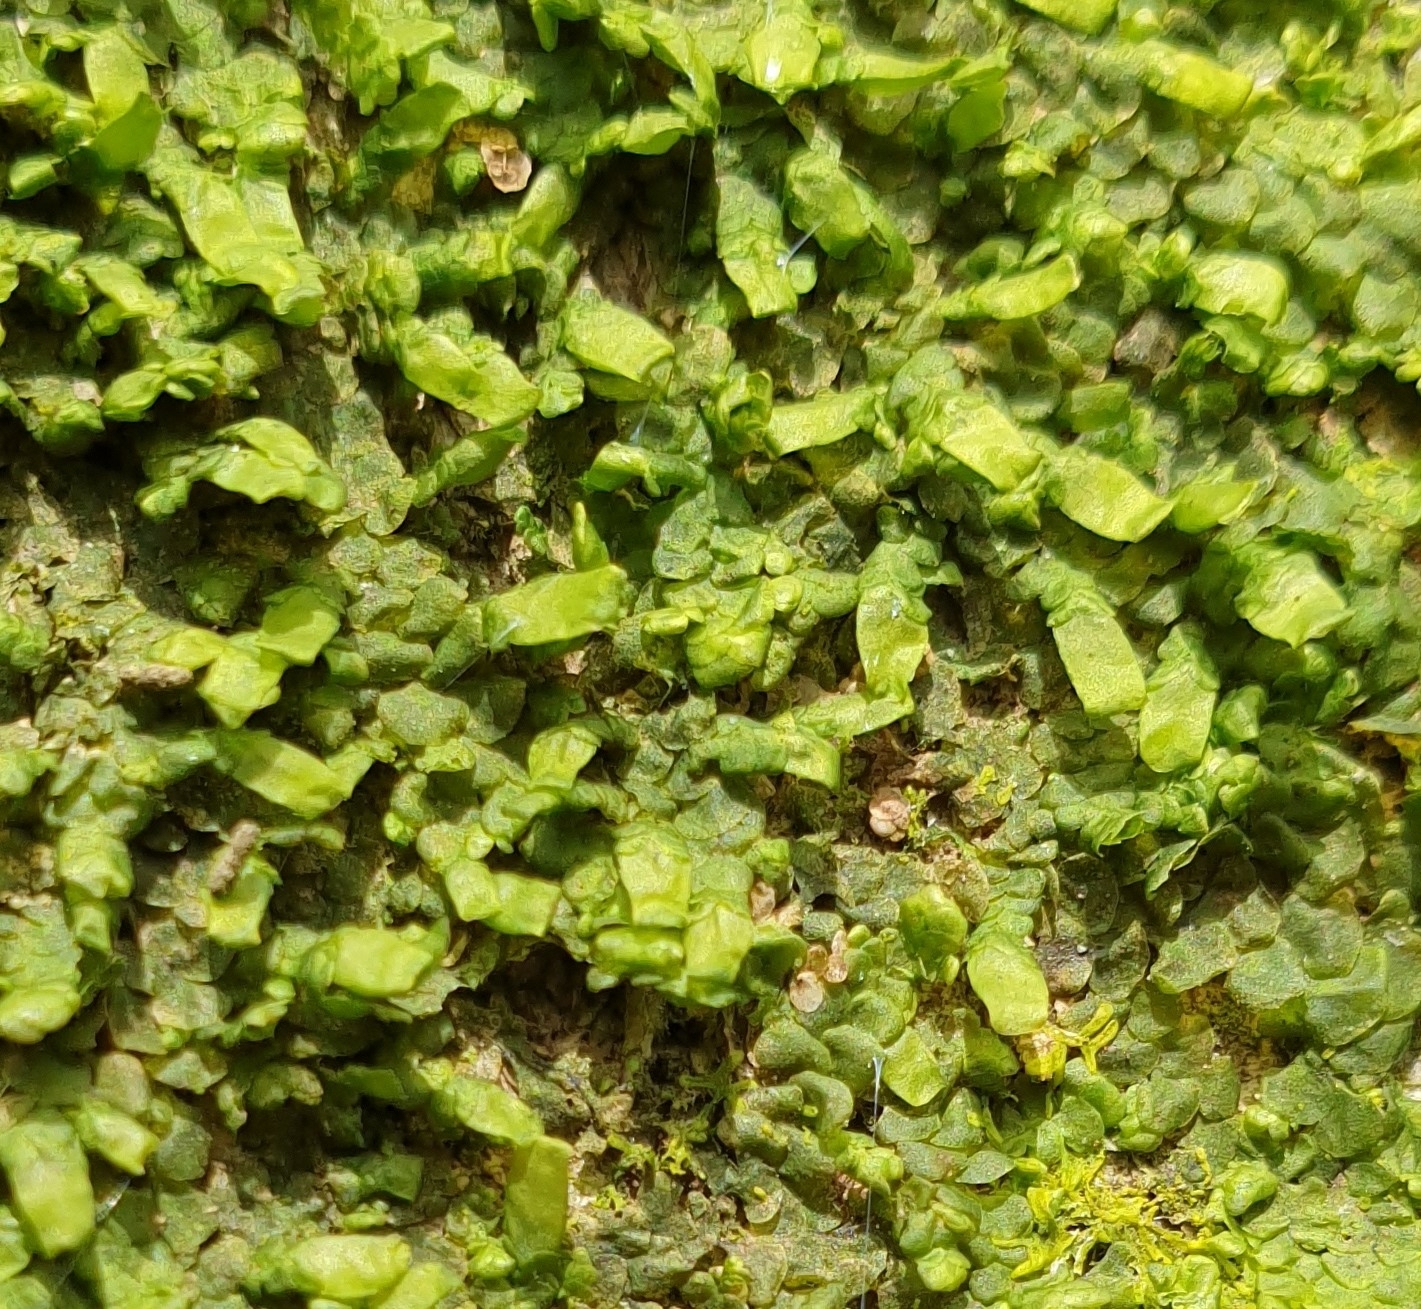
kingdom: Plantae
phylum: Marchantiophyta
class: Jungermanniopsida
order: Porellales
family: Radulaceae
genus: Radula
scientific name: Radula complanata
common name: Flat-leaved scalewort
